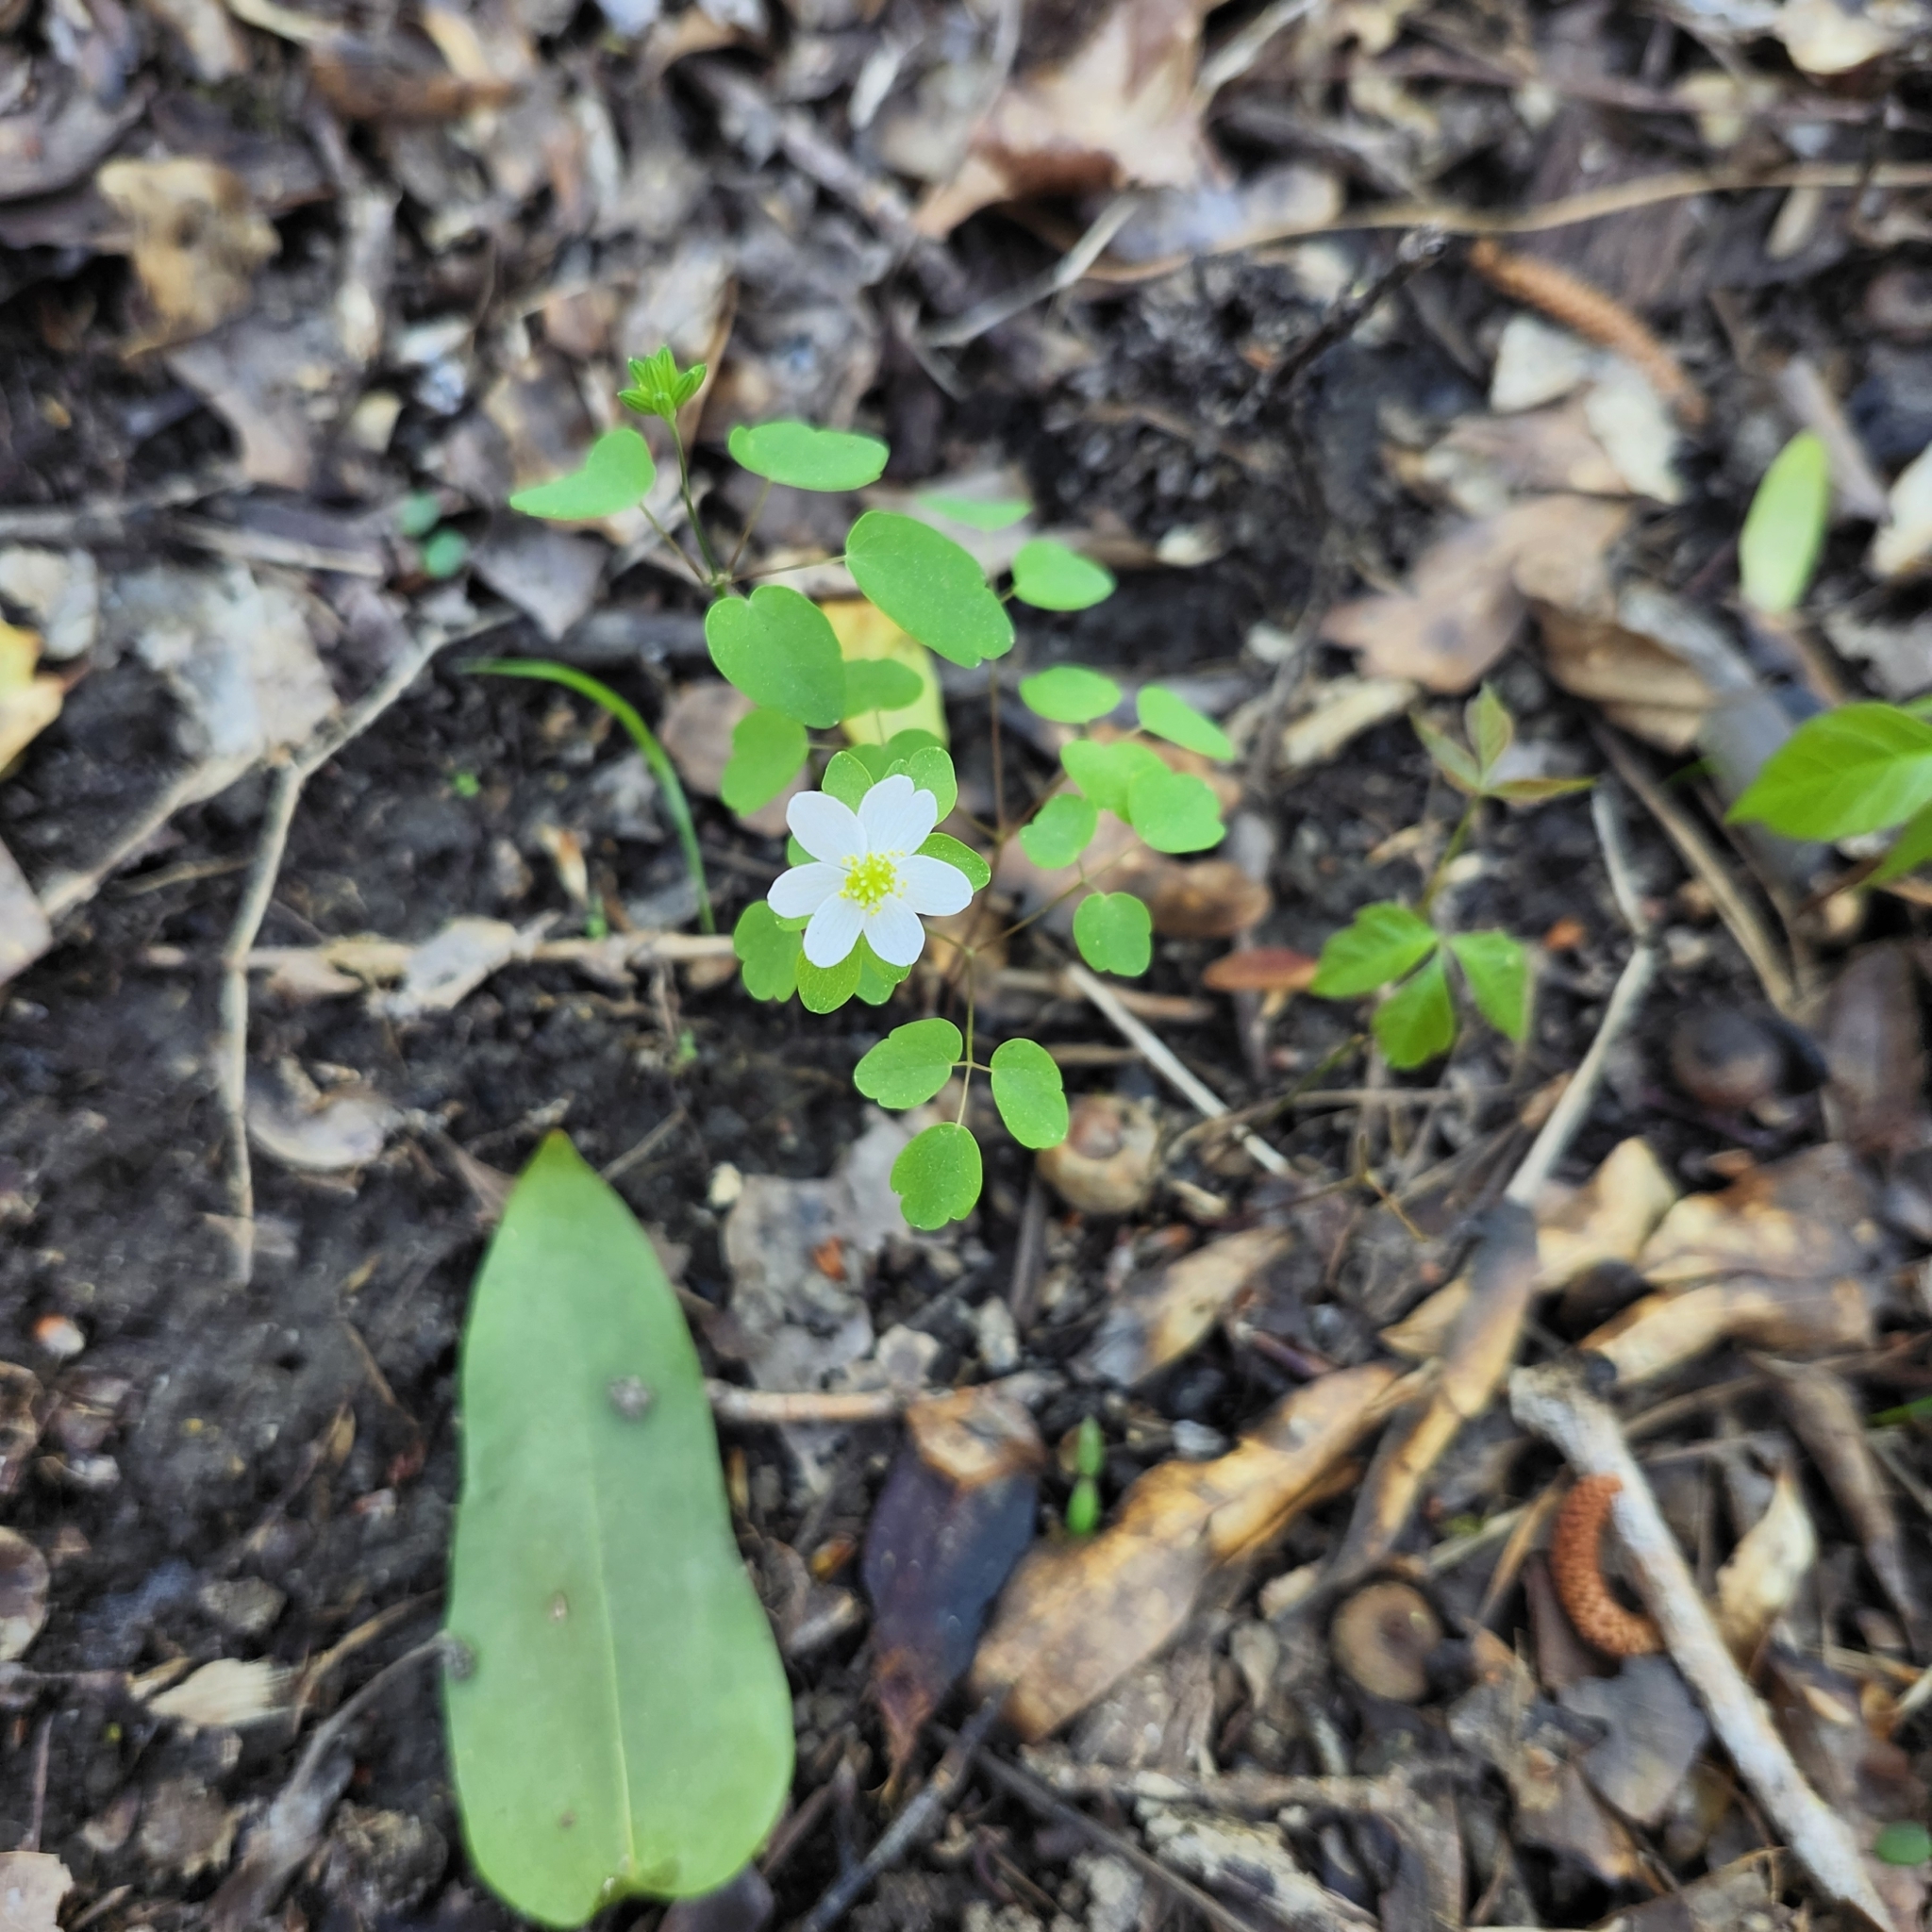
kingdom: Plantae
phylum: Tracheophyta
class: Magnoliopsida
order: Ranunculales
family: Ranunculaceae
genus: Thalictrum
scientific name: Thalictrum thalictroides
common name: Rue-anemone
